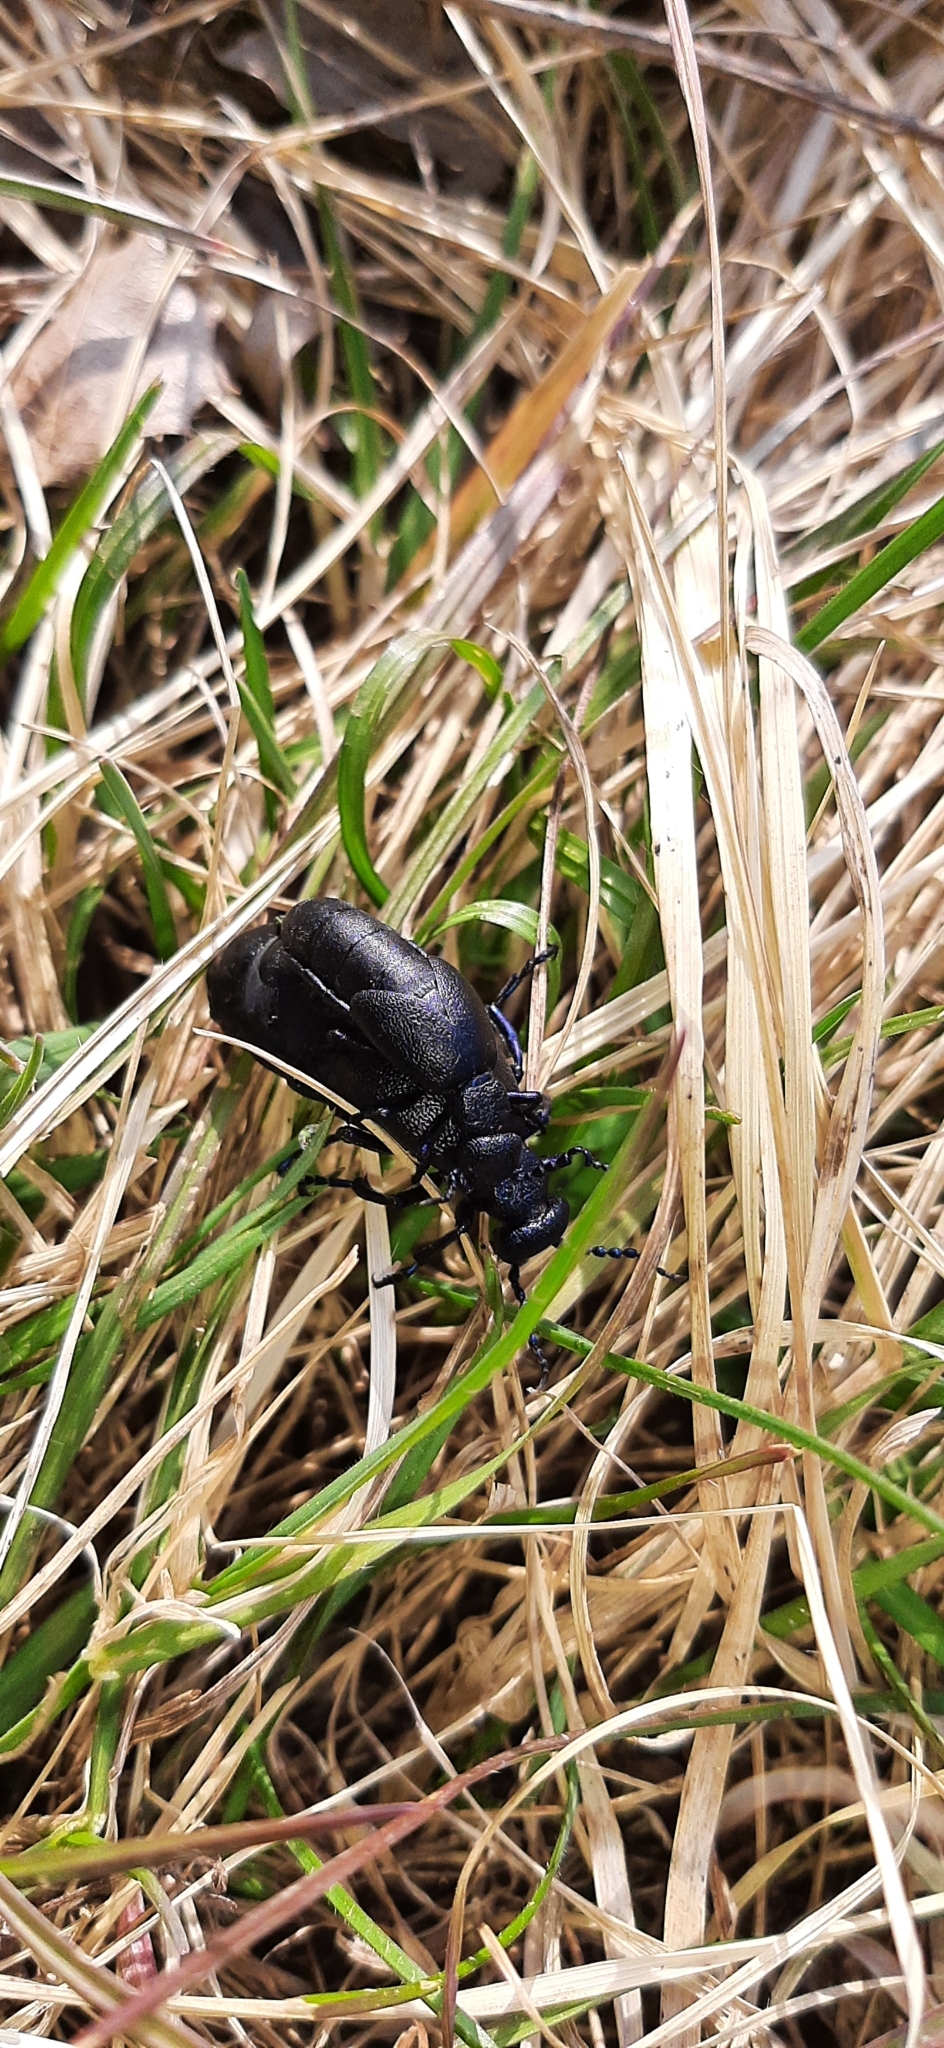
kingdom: Animalia
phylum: Arthropoda
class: Insecta
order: Coleoptera
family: Meloidae
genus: Meloe
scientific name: Meloe proscarabaeus
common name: Black oil-beetle
